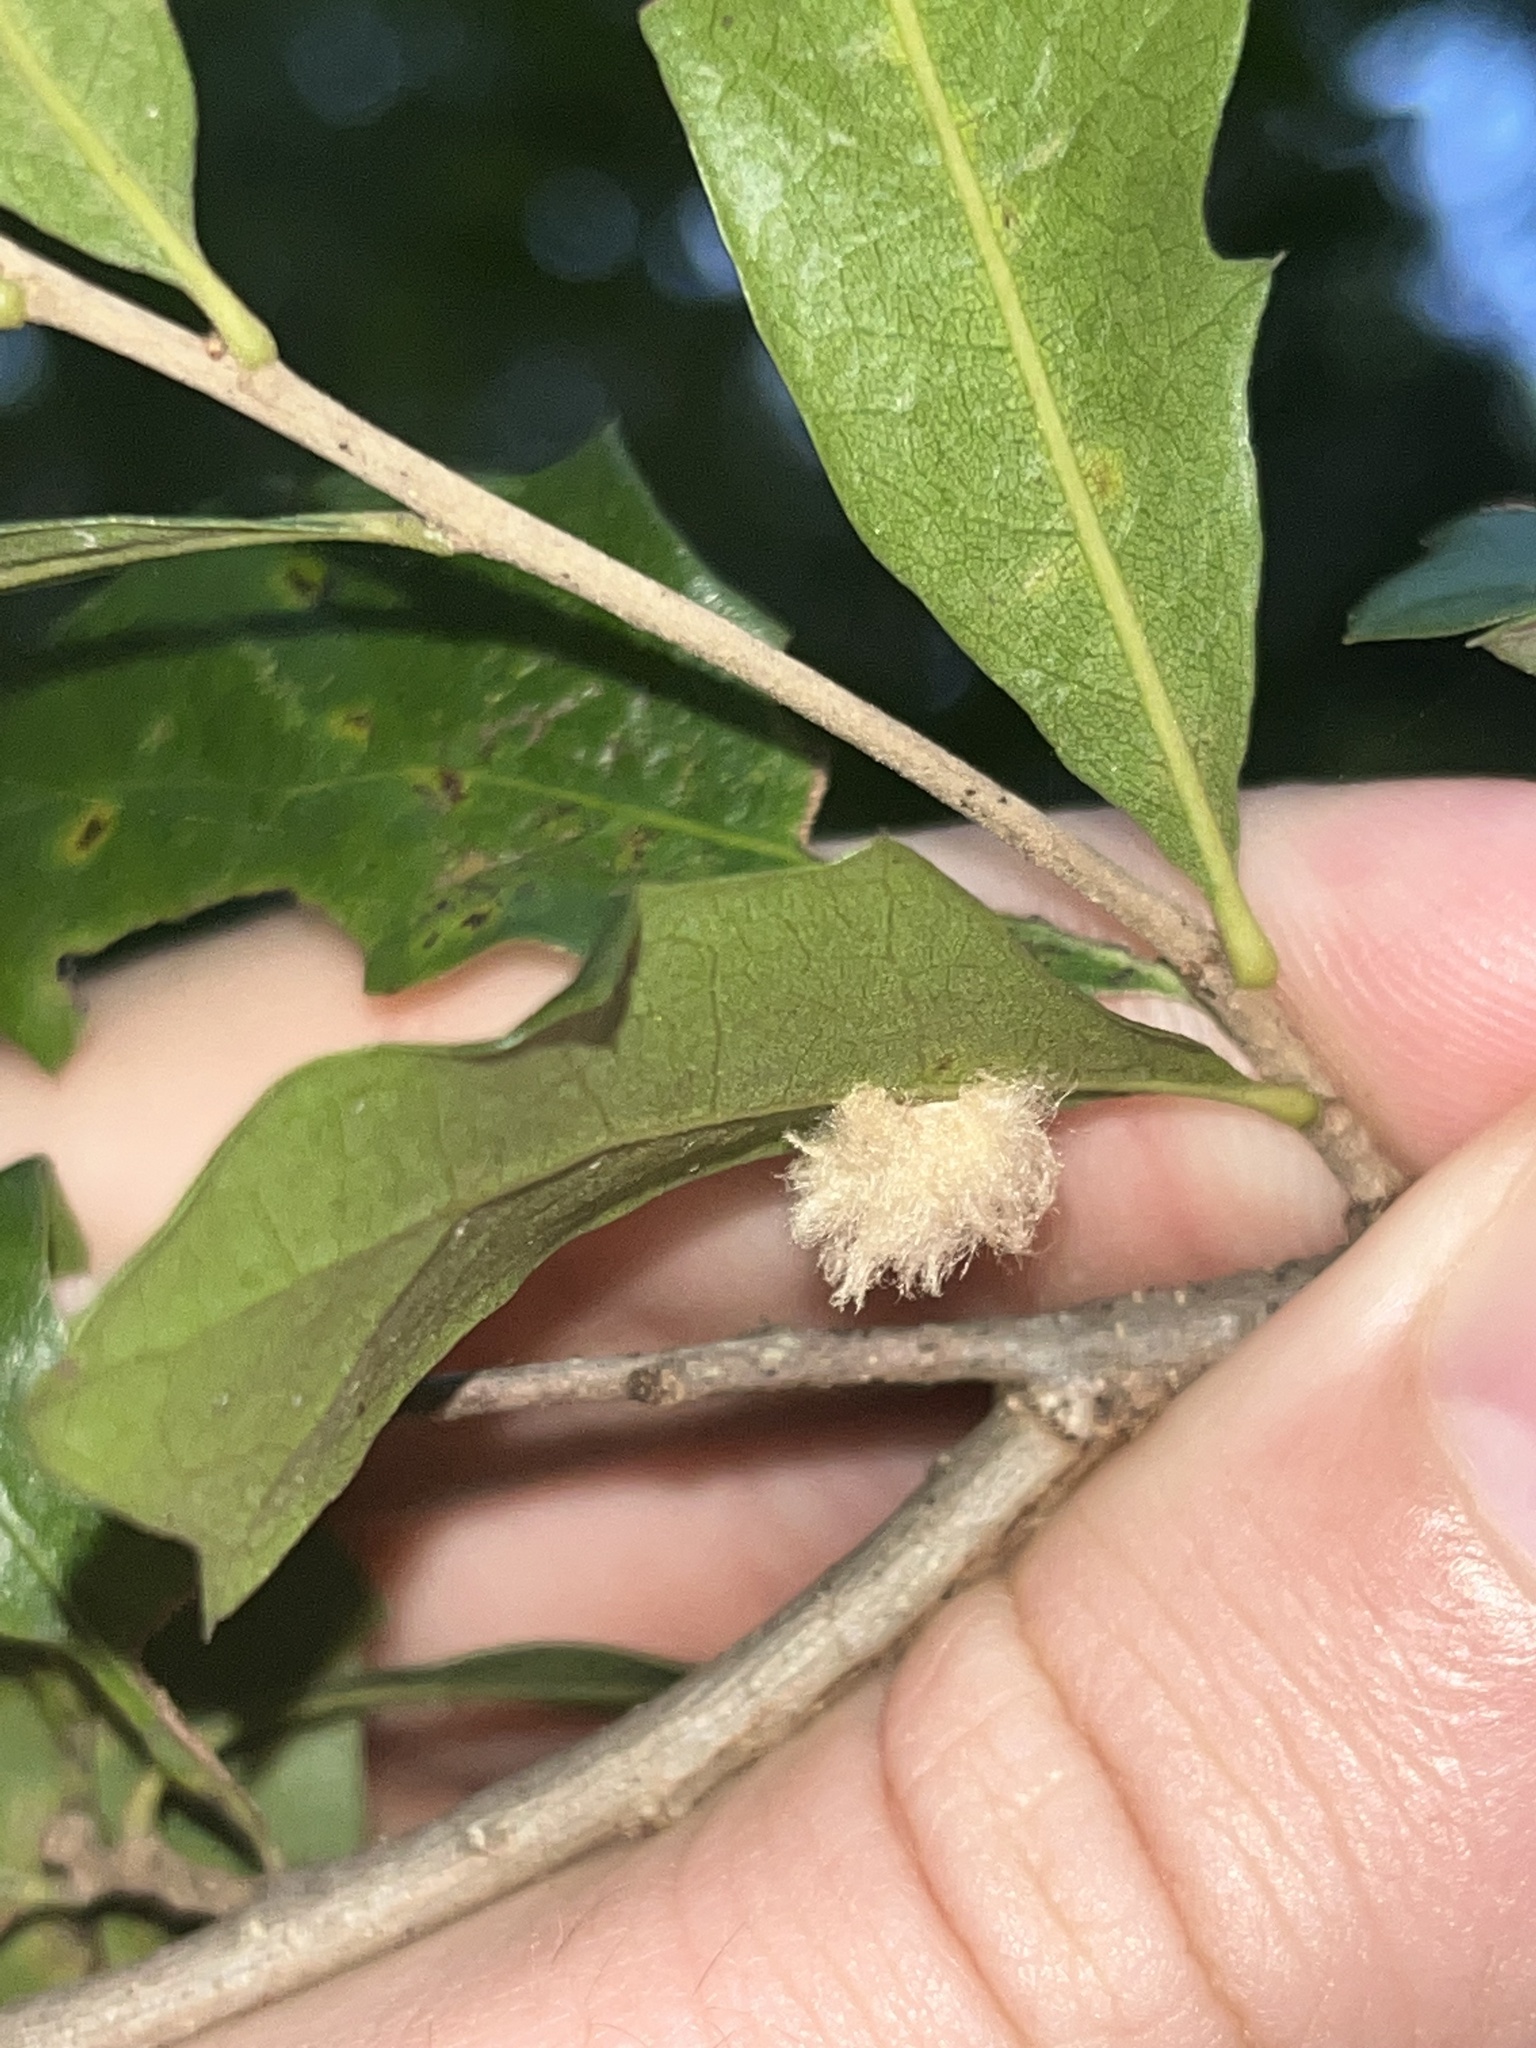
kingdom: Animalia
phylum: Arthropoda
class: Insecta
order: Hymenoptera
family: Cynipidae
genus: Andricus
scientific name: Andricus Druon quercuslanigerum
